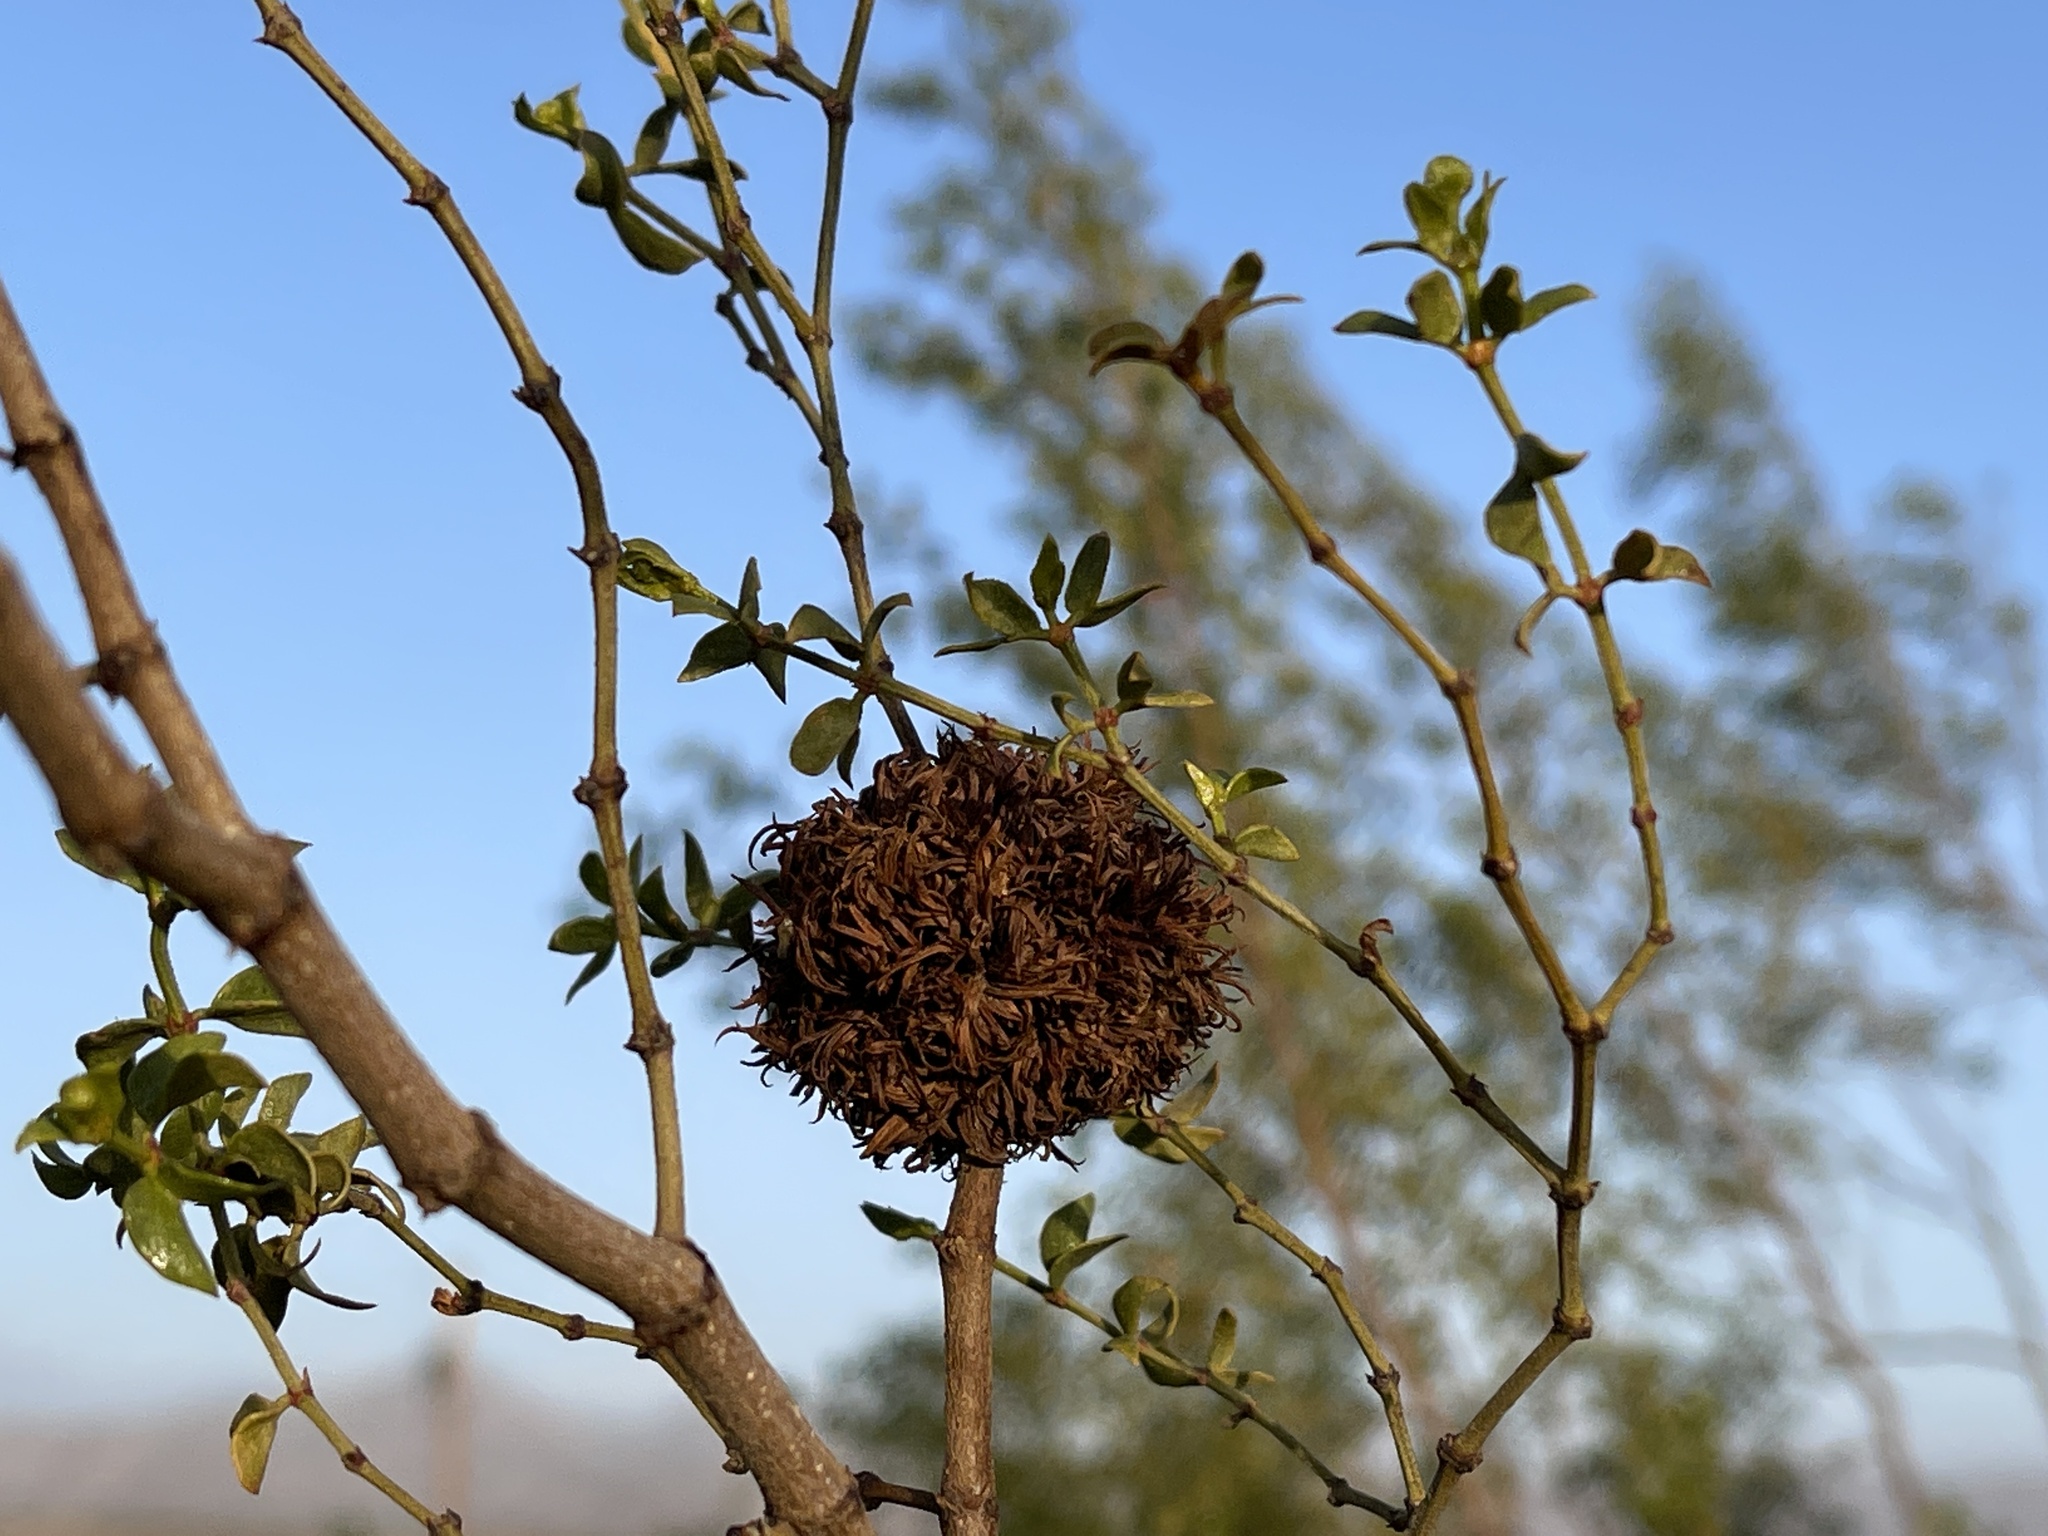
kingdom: Animalia
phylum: Arthropoda
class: Insecta
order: Diptera
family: Cecidomyiidae
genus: Asphondylia
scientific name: Asphondylia auripila
